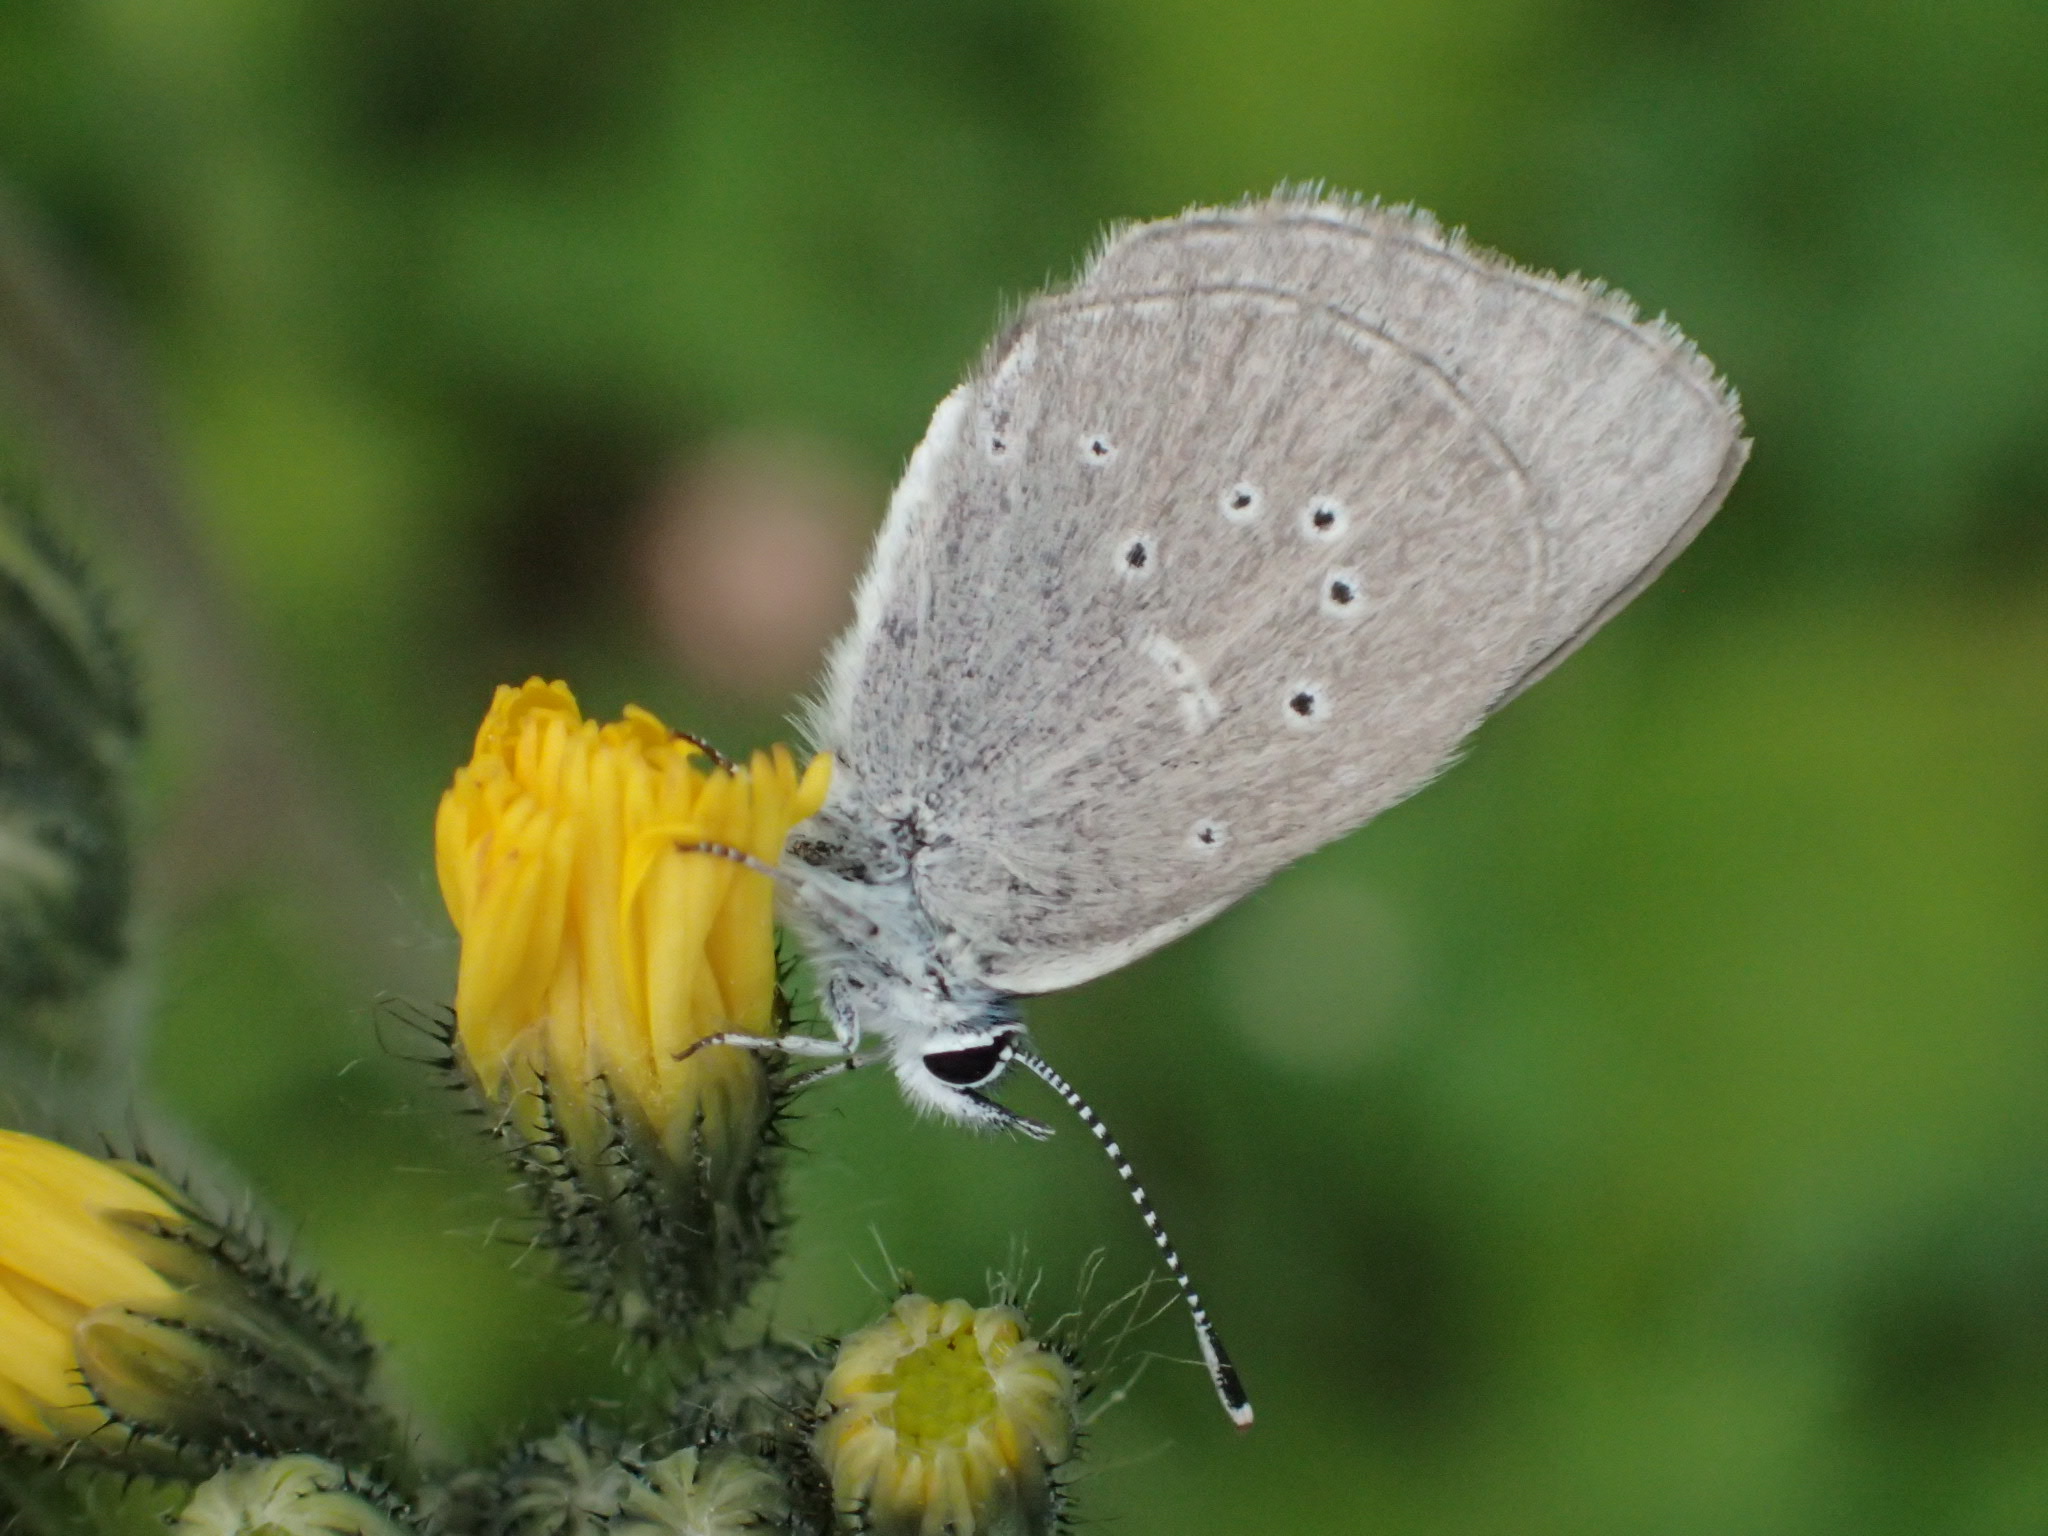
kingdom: Animalia
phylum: Arthropoda
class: Insecta
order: Lepidoptera
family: Lycaenidae
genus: Glaucopsyche
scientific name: Glaucopsyche lygdamus
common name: Silvery blue
